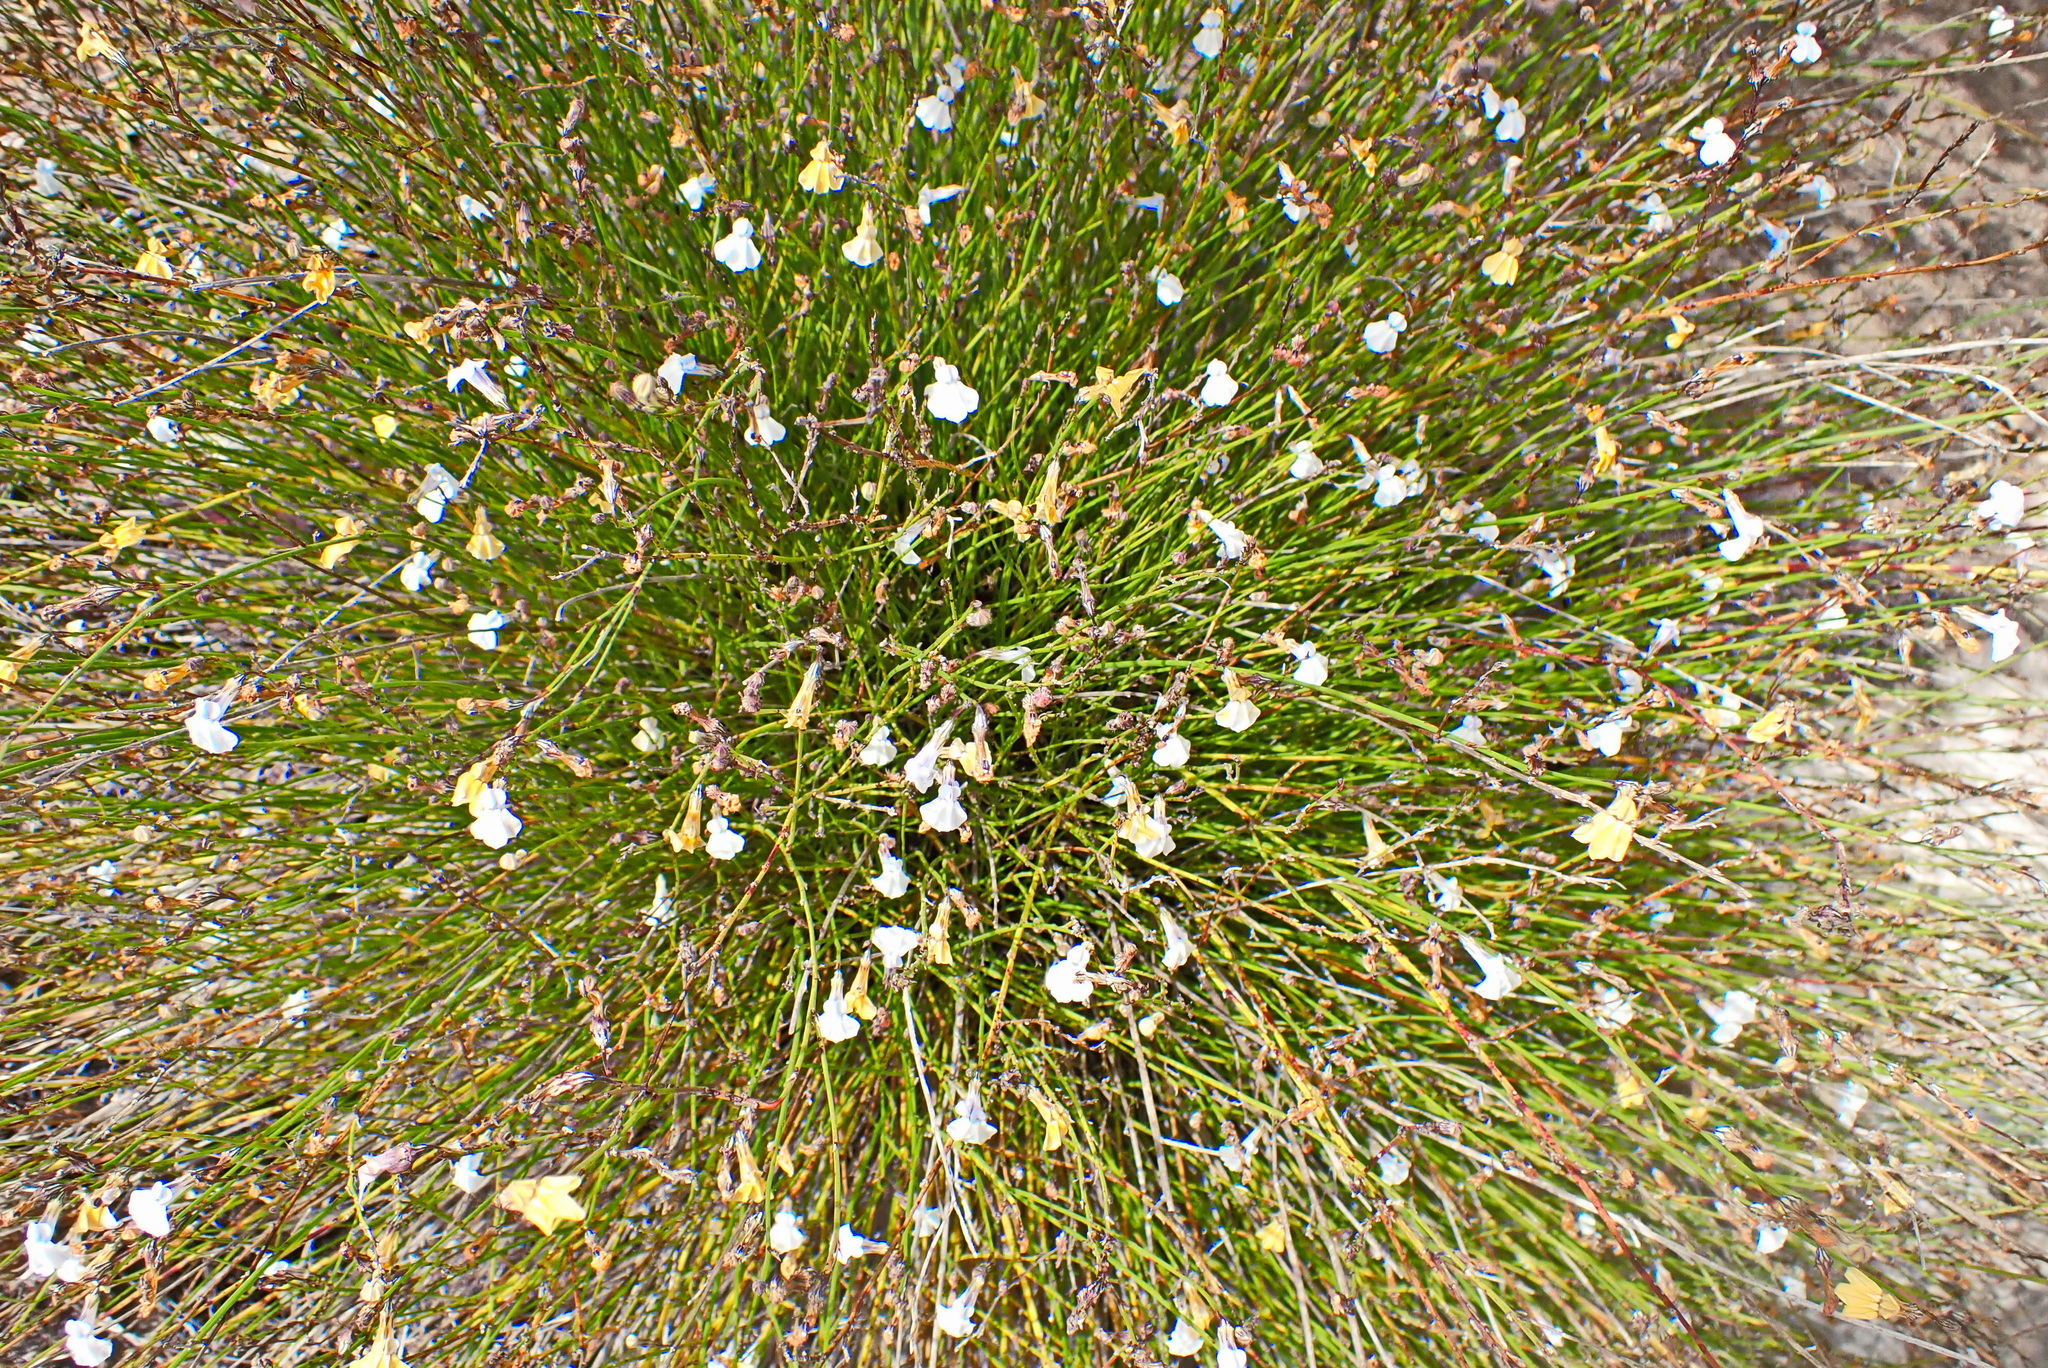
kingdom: Plantae
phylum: Tracheophyta
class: Magnoliopsida
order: Asterales
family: Campanulaceae
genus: Lobelia
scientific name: Lobelia capillifolia
